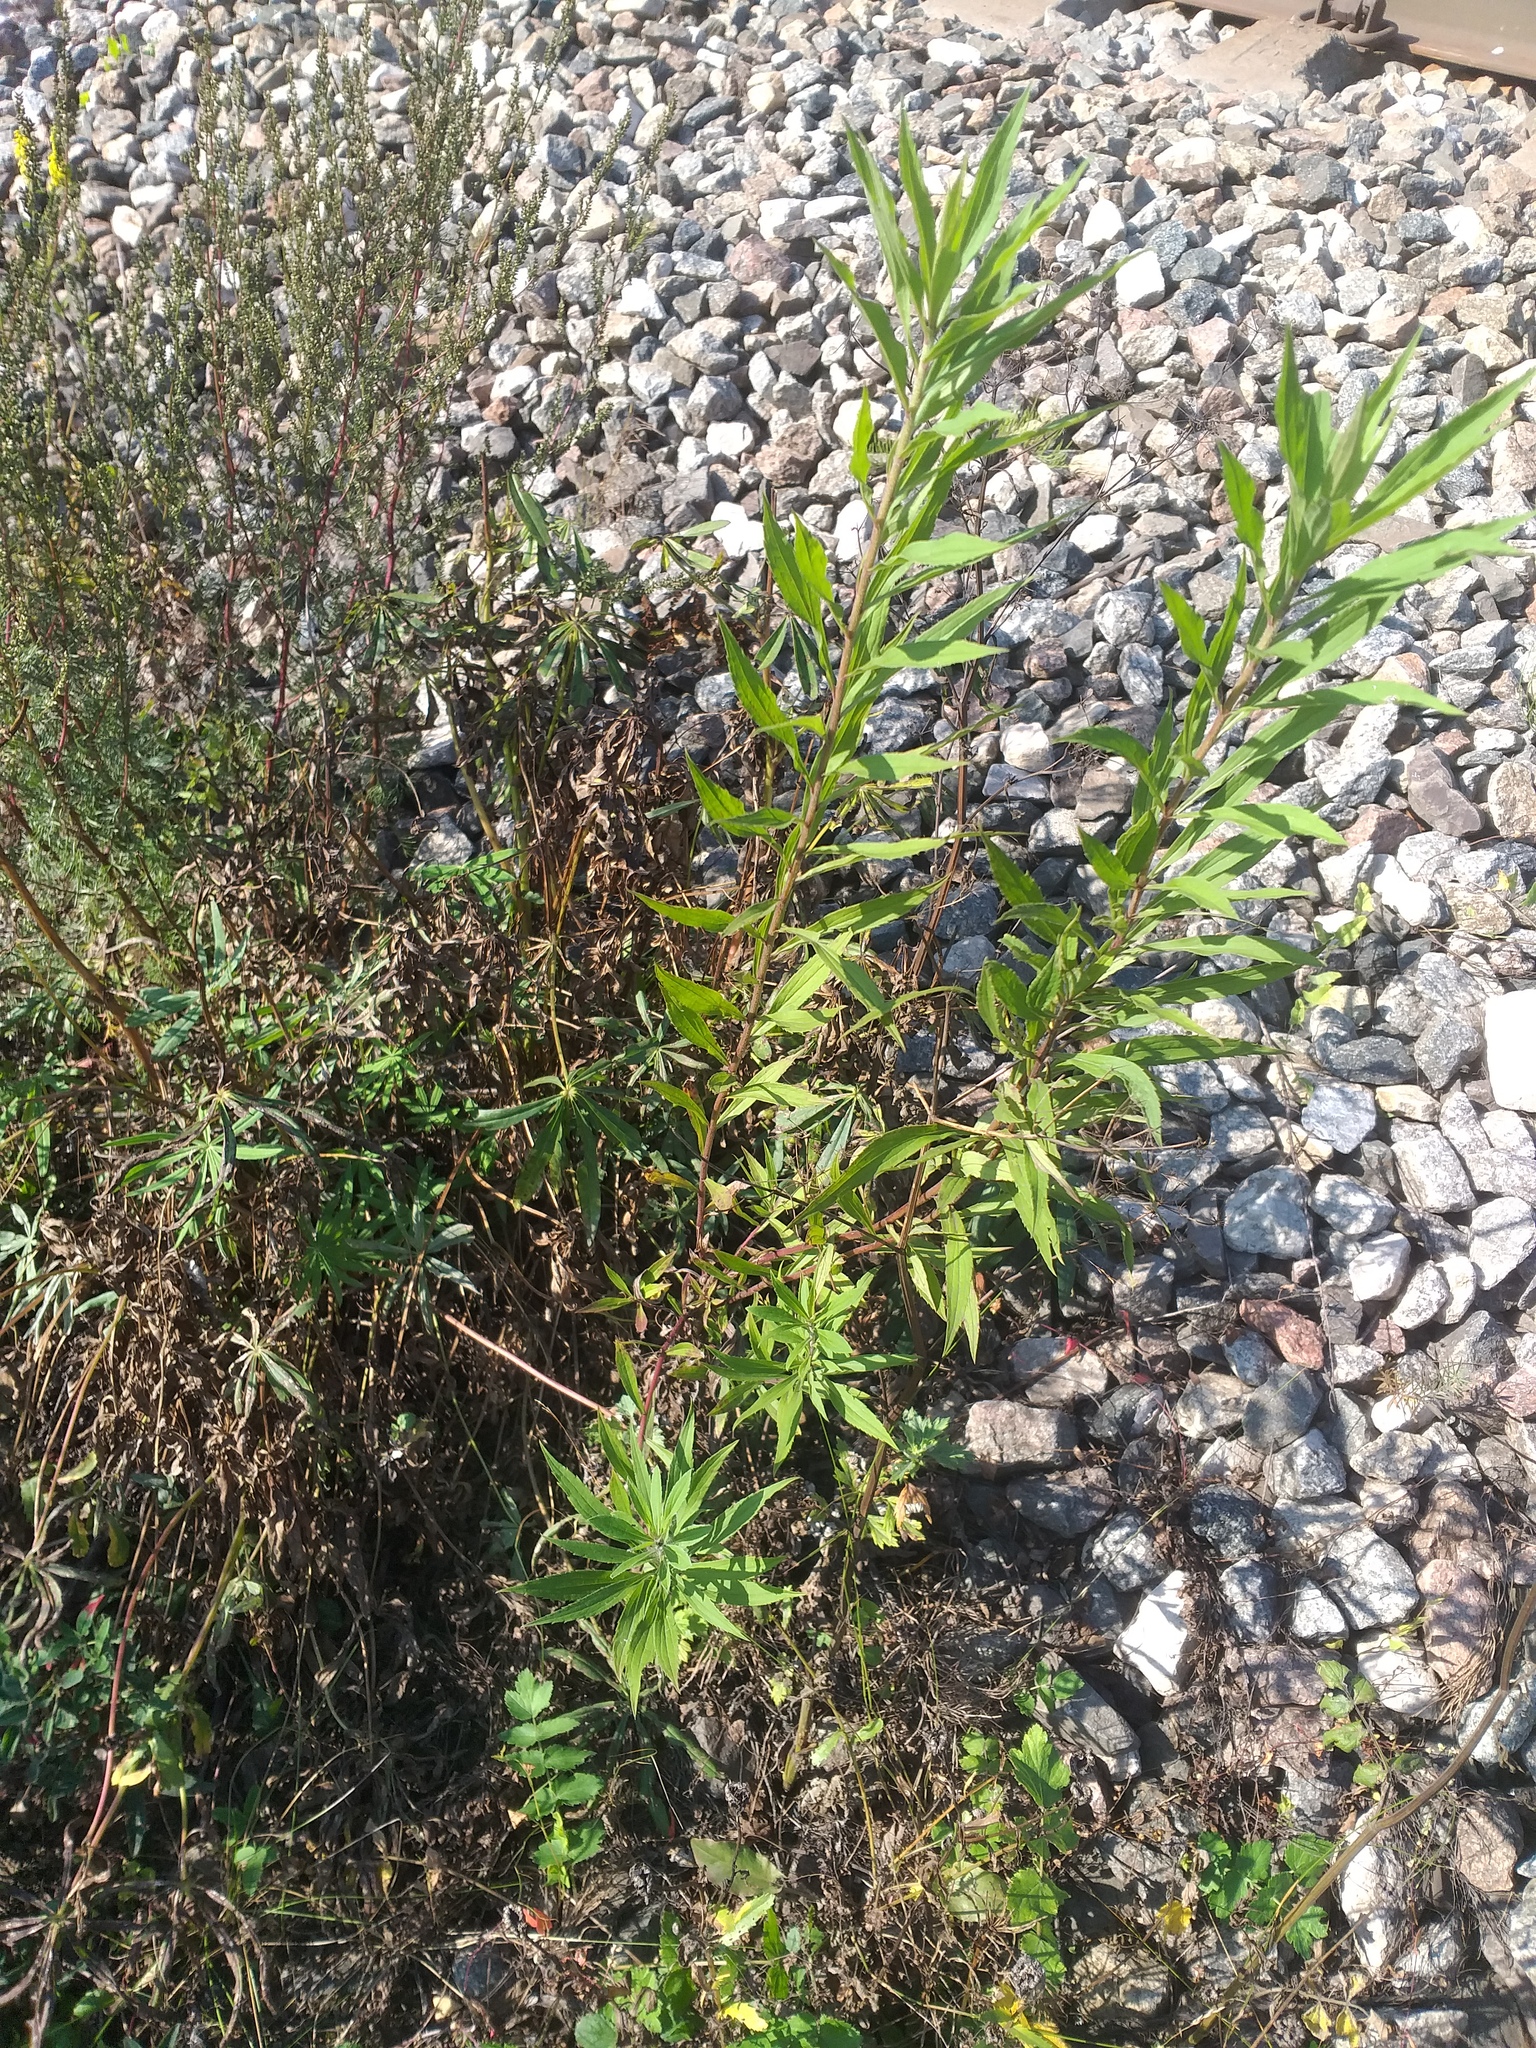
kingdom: Plantae
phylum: Tracheophyta
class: Magnoliopsida
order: Asterales
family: Asteraceae
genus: Solidago
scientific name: Solidago canadensis
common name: Canada goldenrod
